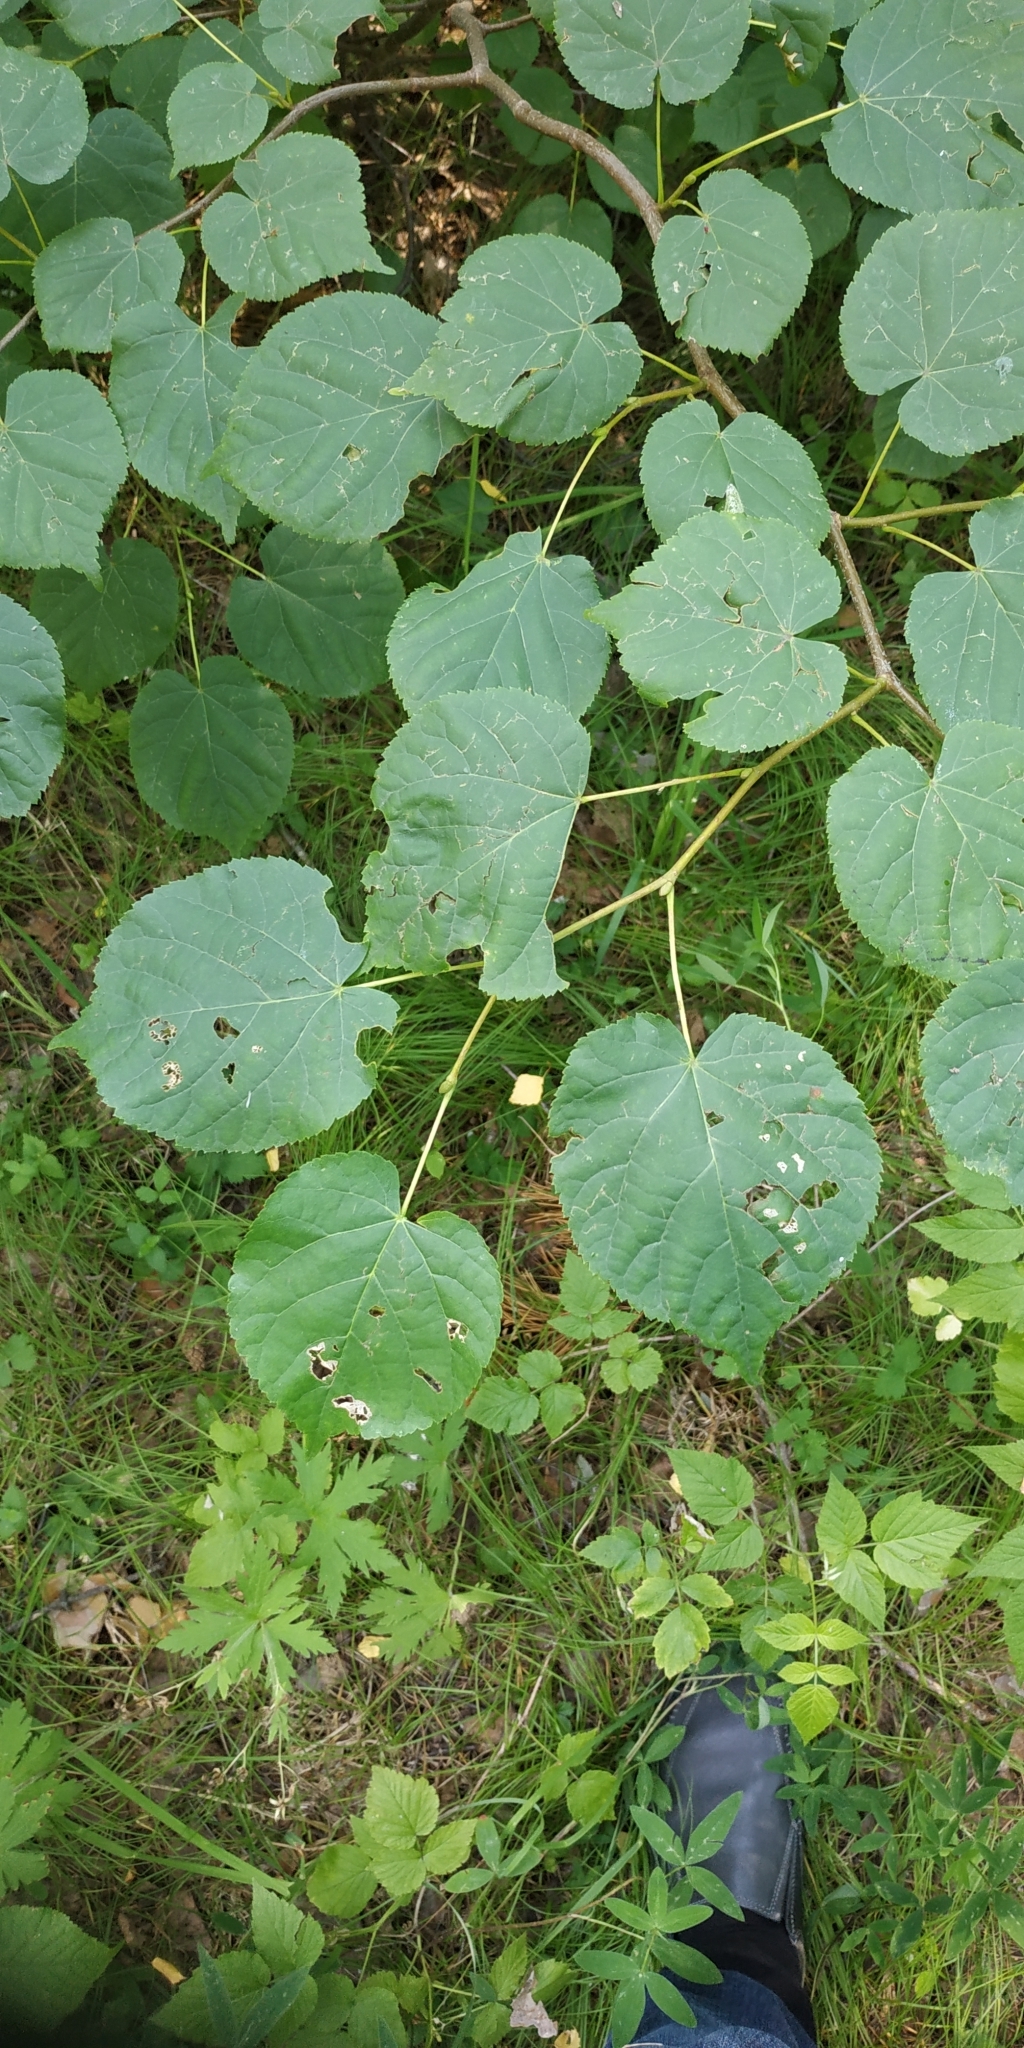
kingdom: Plantae
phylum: Tracheophyta
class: Magnoliopsida
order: Malvales
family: Malvaceae
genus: Tilia
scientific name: Tilia cordata
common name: Small-leaved lime
